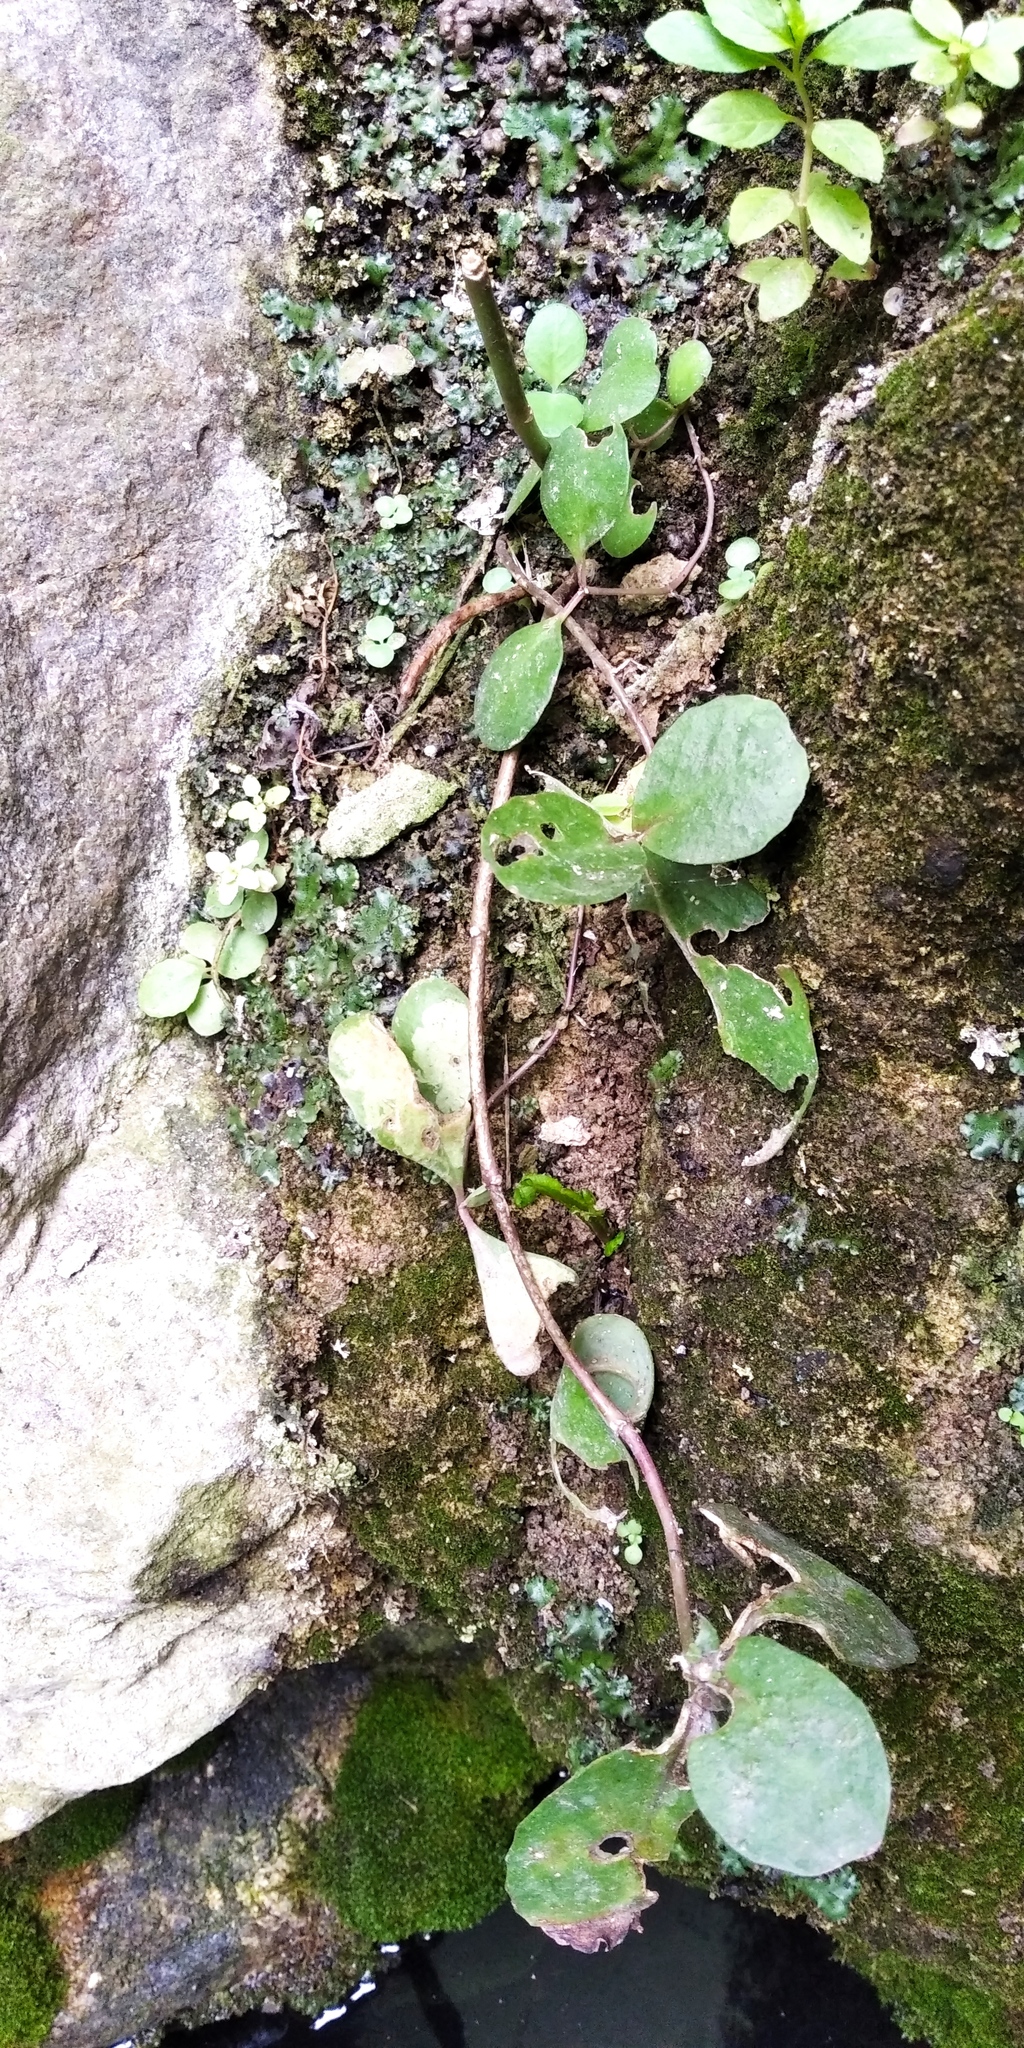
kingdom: Plantae
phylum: Tracheophyta
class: Magnoliopsida
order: Rosales
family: Urticaceae
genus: Urtica
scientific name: Urtica dioica
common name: Common nettle
